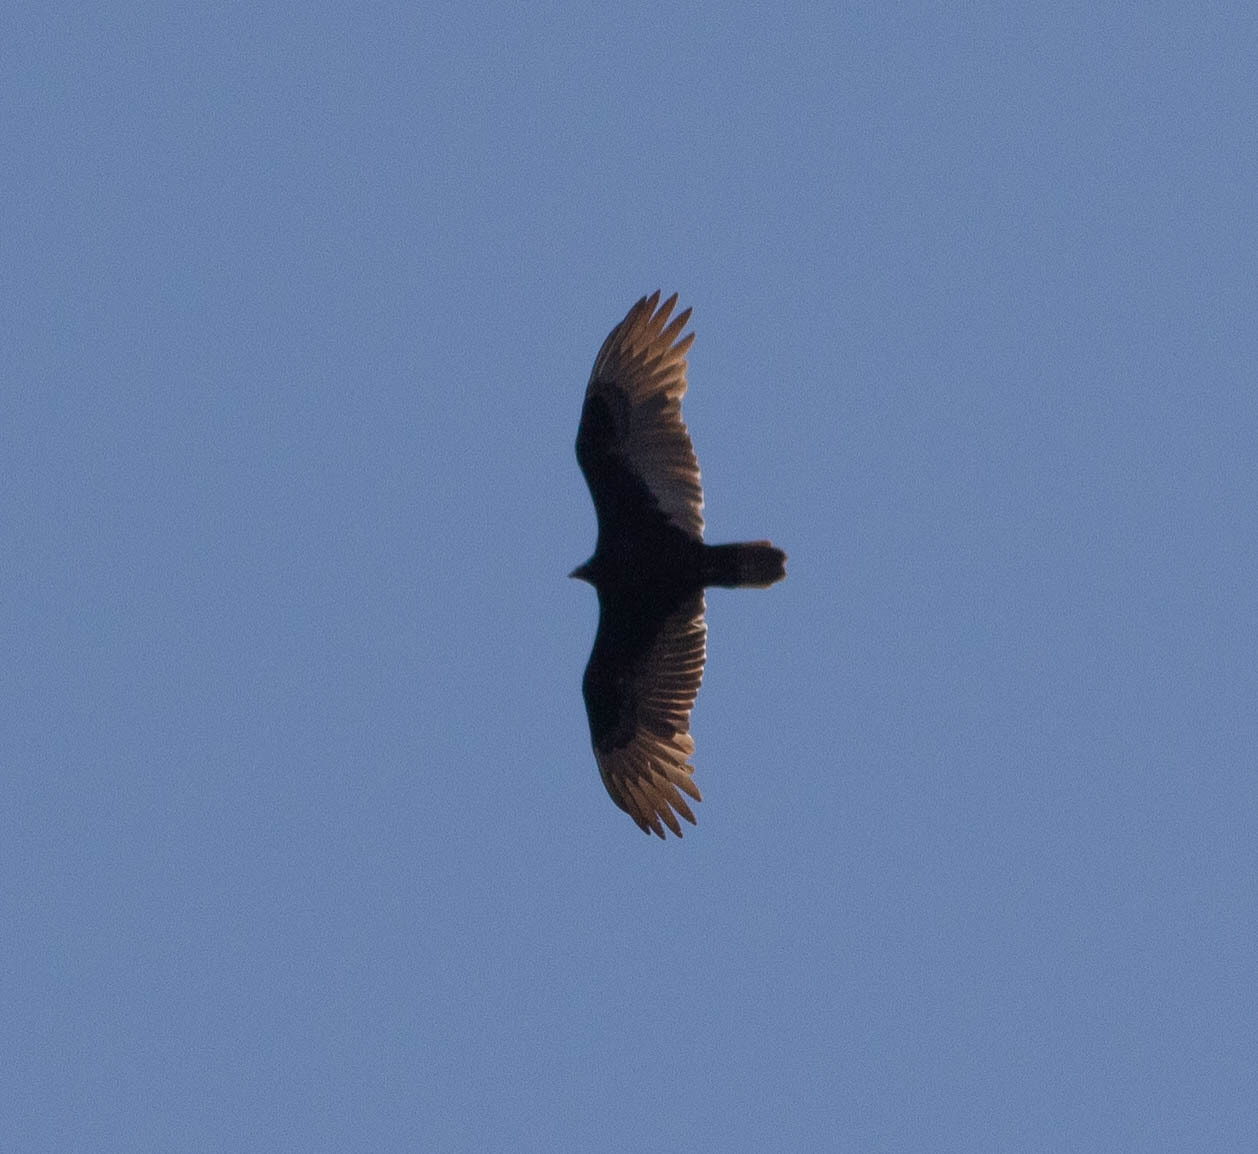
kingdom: Animalia
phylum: Chordata
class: Aves
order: Accipitriformes
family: Cathartidae
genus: Cathartes
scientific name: Cathartes aura
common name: Turkey vulture
